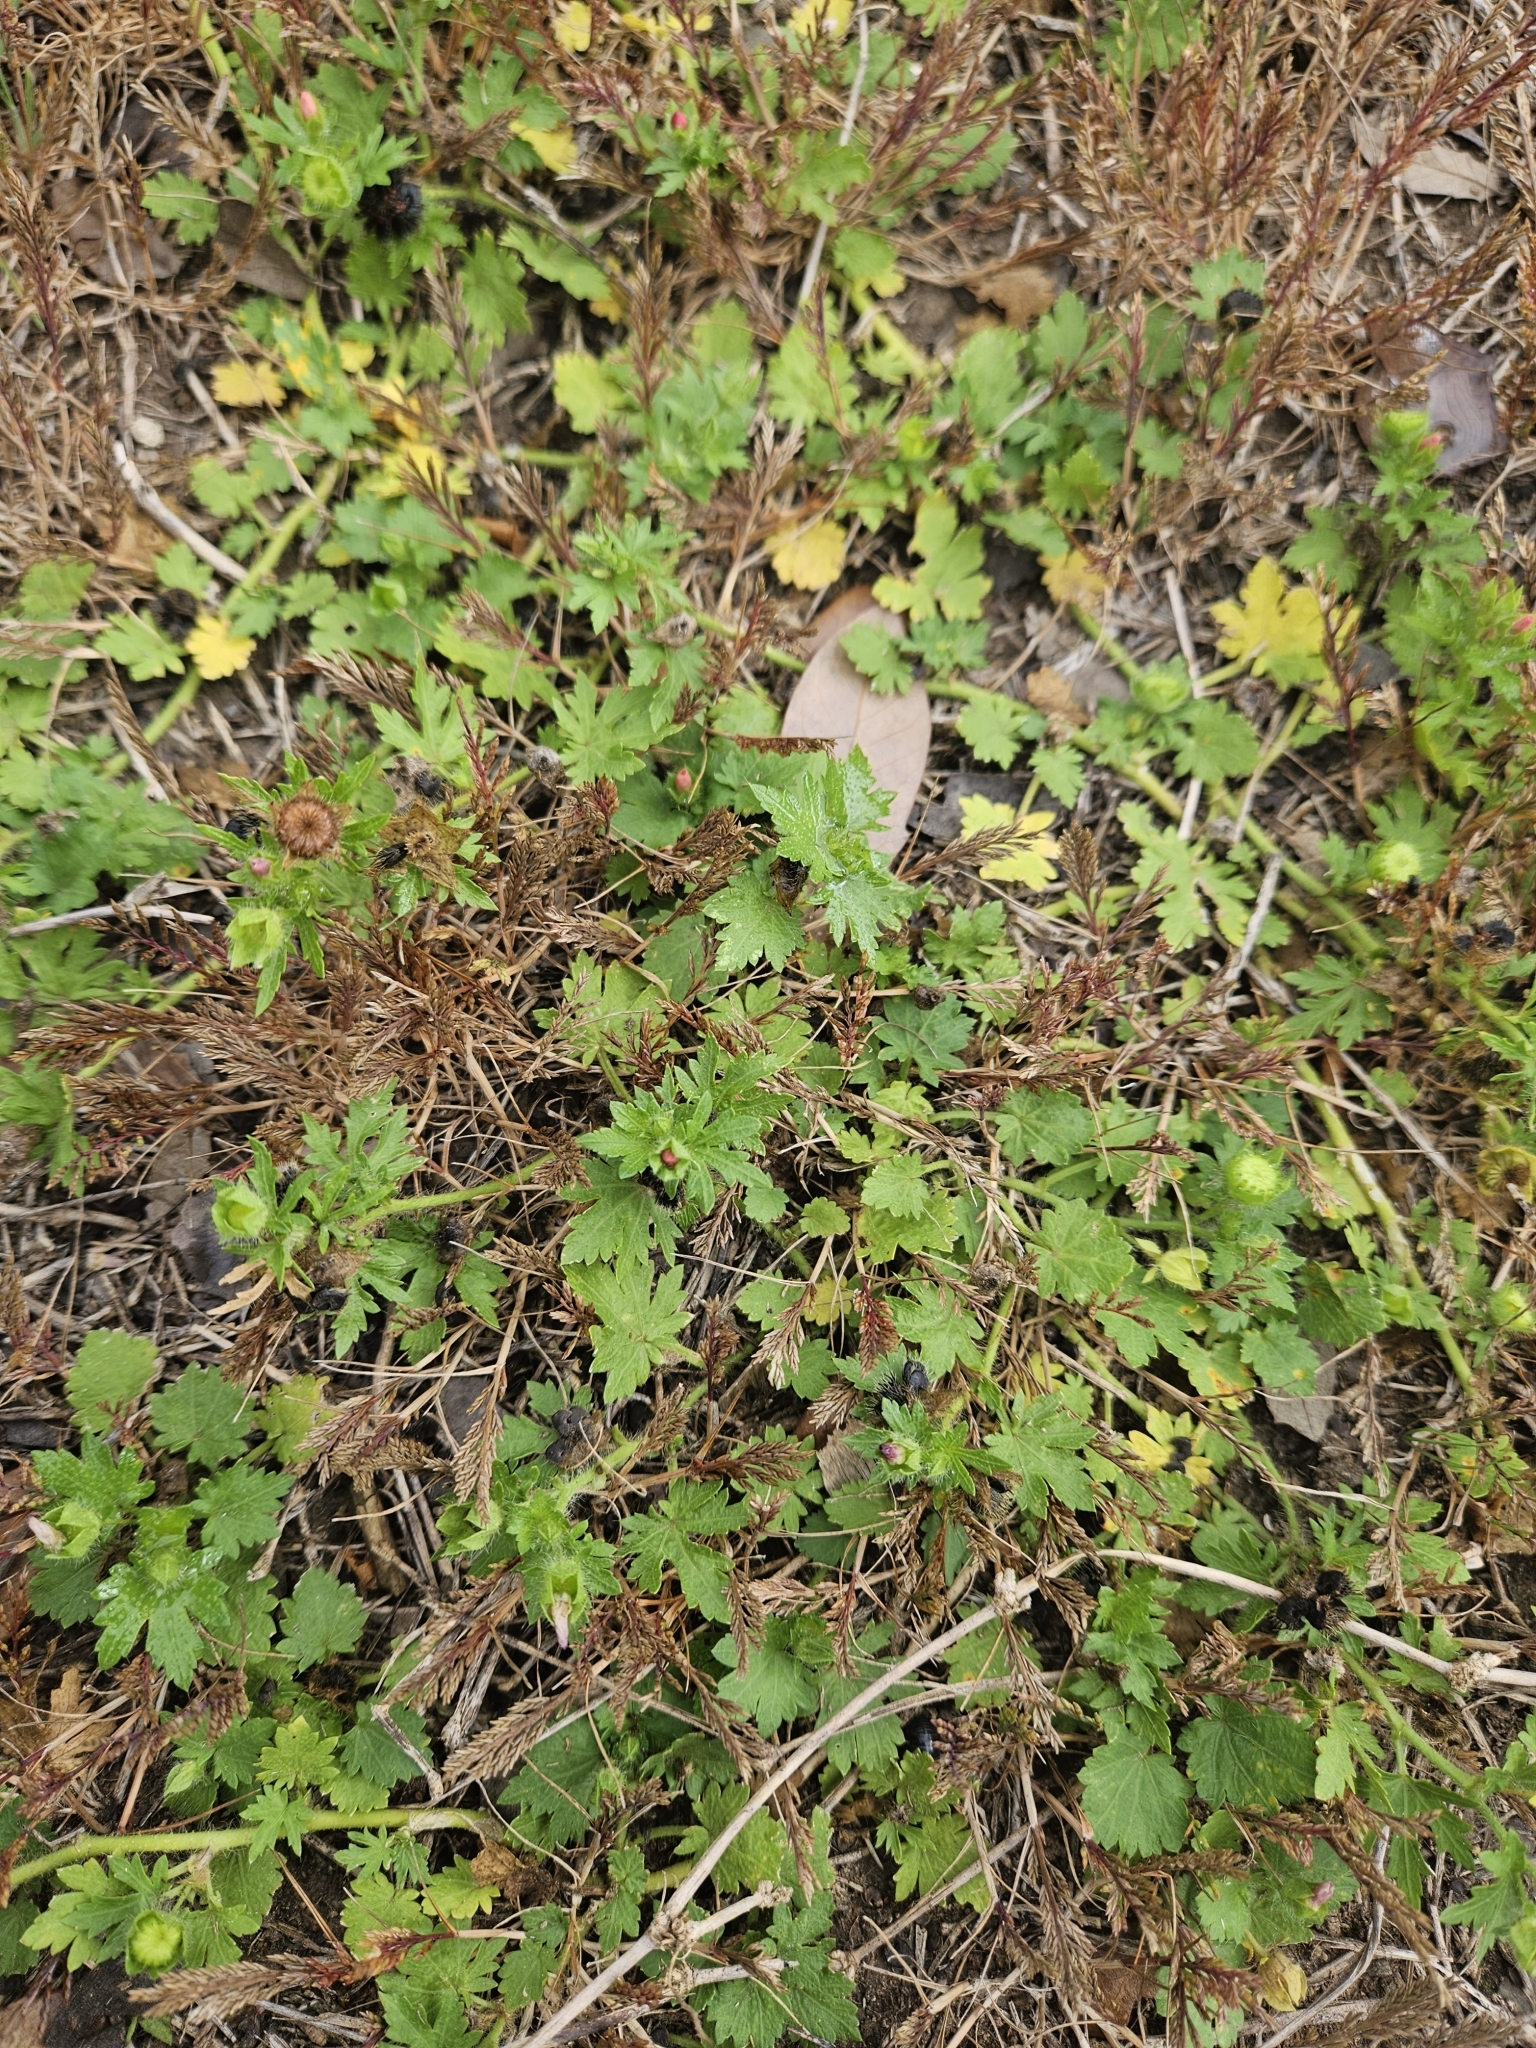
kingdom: Plantae
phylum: Tracheophyta
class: Magnoliopsida
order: Malvales
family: Malvaceae
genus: Modiola
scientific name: Modiola caroliniana
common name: Carolina bristlemallow
